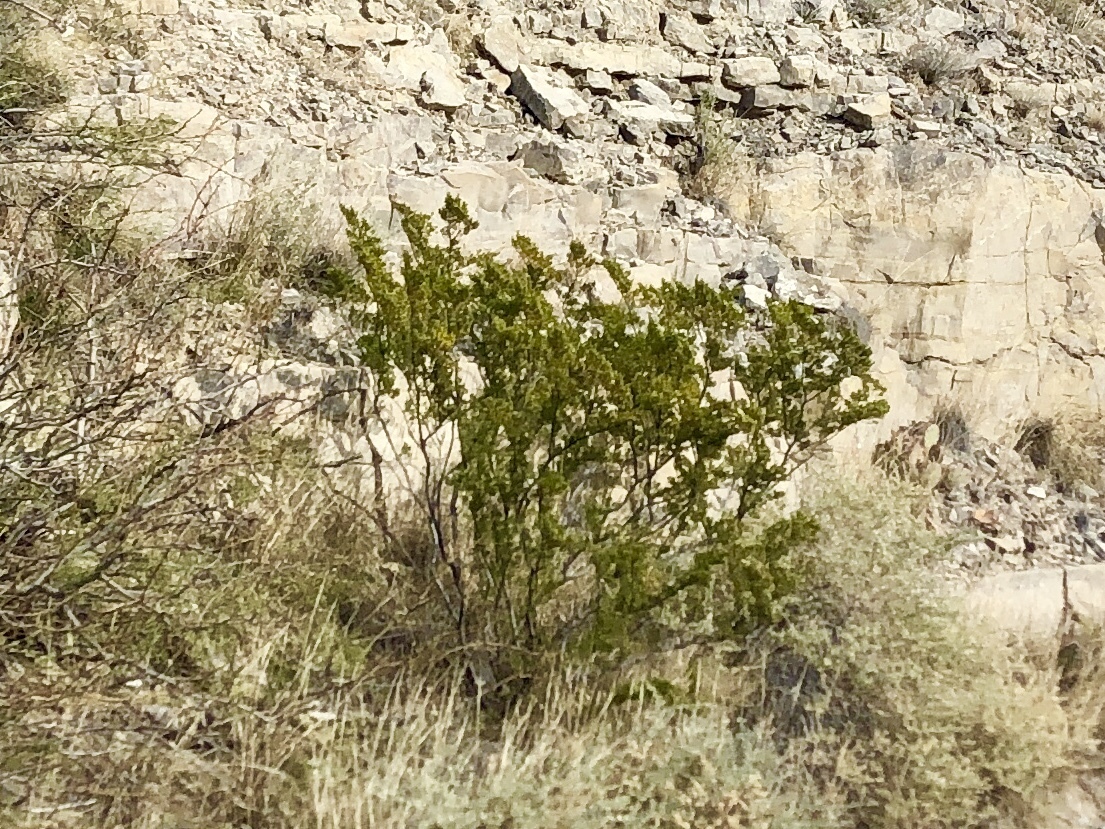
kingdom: Plantae
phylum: Tracheophyta
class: Magnoliopsida
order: Zygophyllales
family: Zygophyllaceae
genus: Larrea
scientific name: Larrea tridentata
